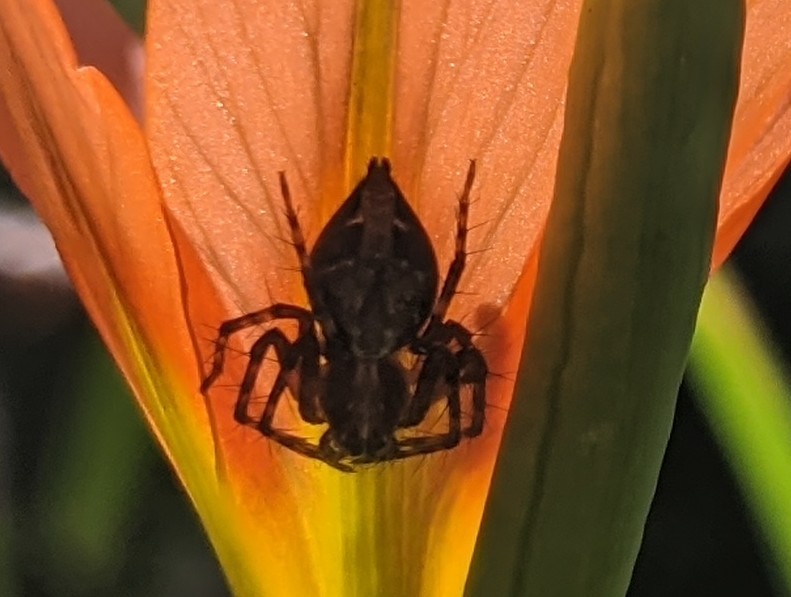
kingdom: Animalia
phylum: Arthropoda
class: Arachnida
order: Araneae
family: Oxyopidae
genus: Oxyopes
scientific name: Oxyopes scalaris
